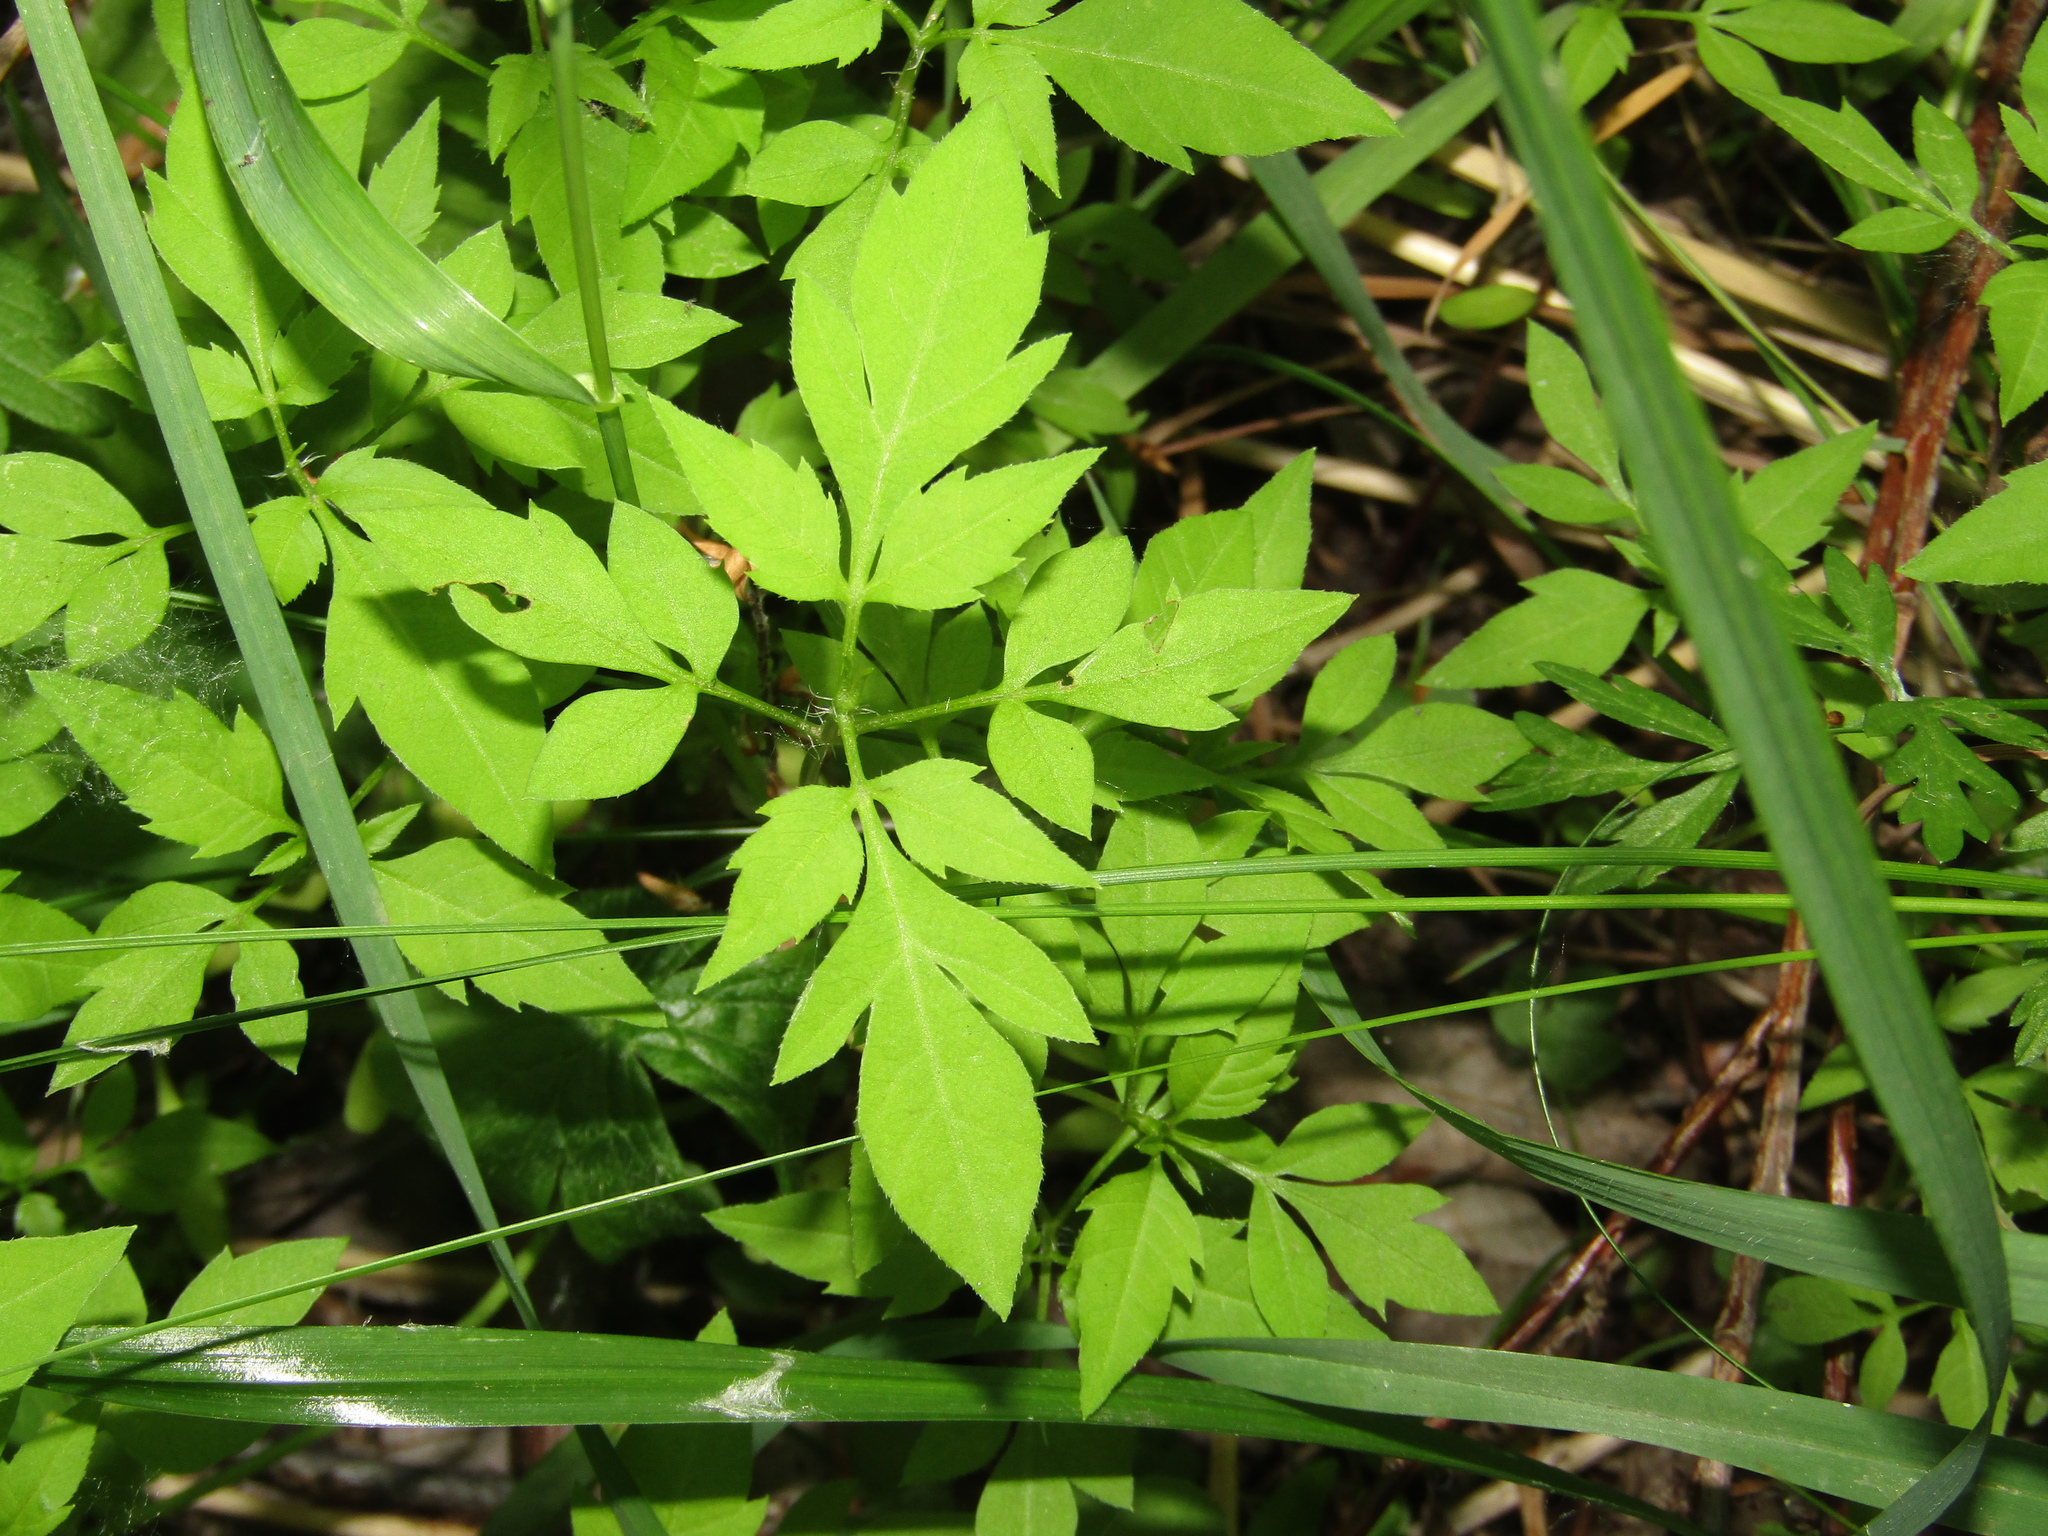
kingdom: Plantae
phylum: Tracheophyta
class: Magnoliopsida
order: Asterales
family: Asteraceae
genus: Bidens
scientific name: Bidens frondosa
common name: Beggarticks
